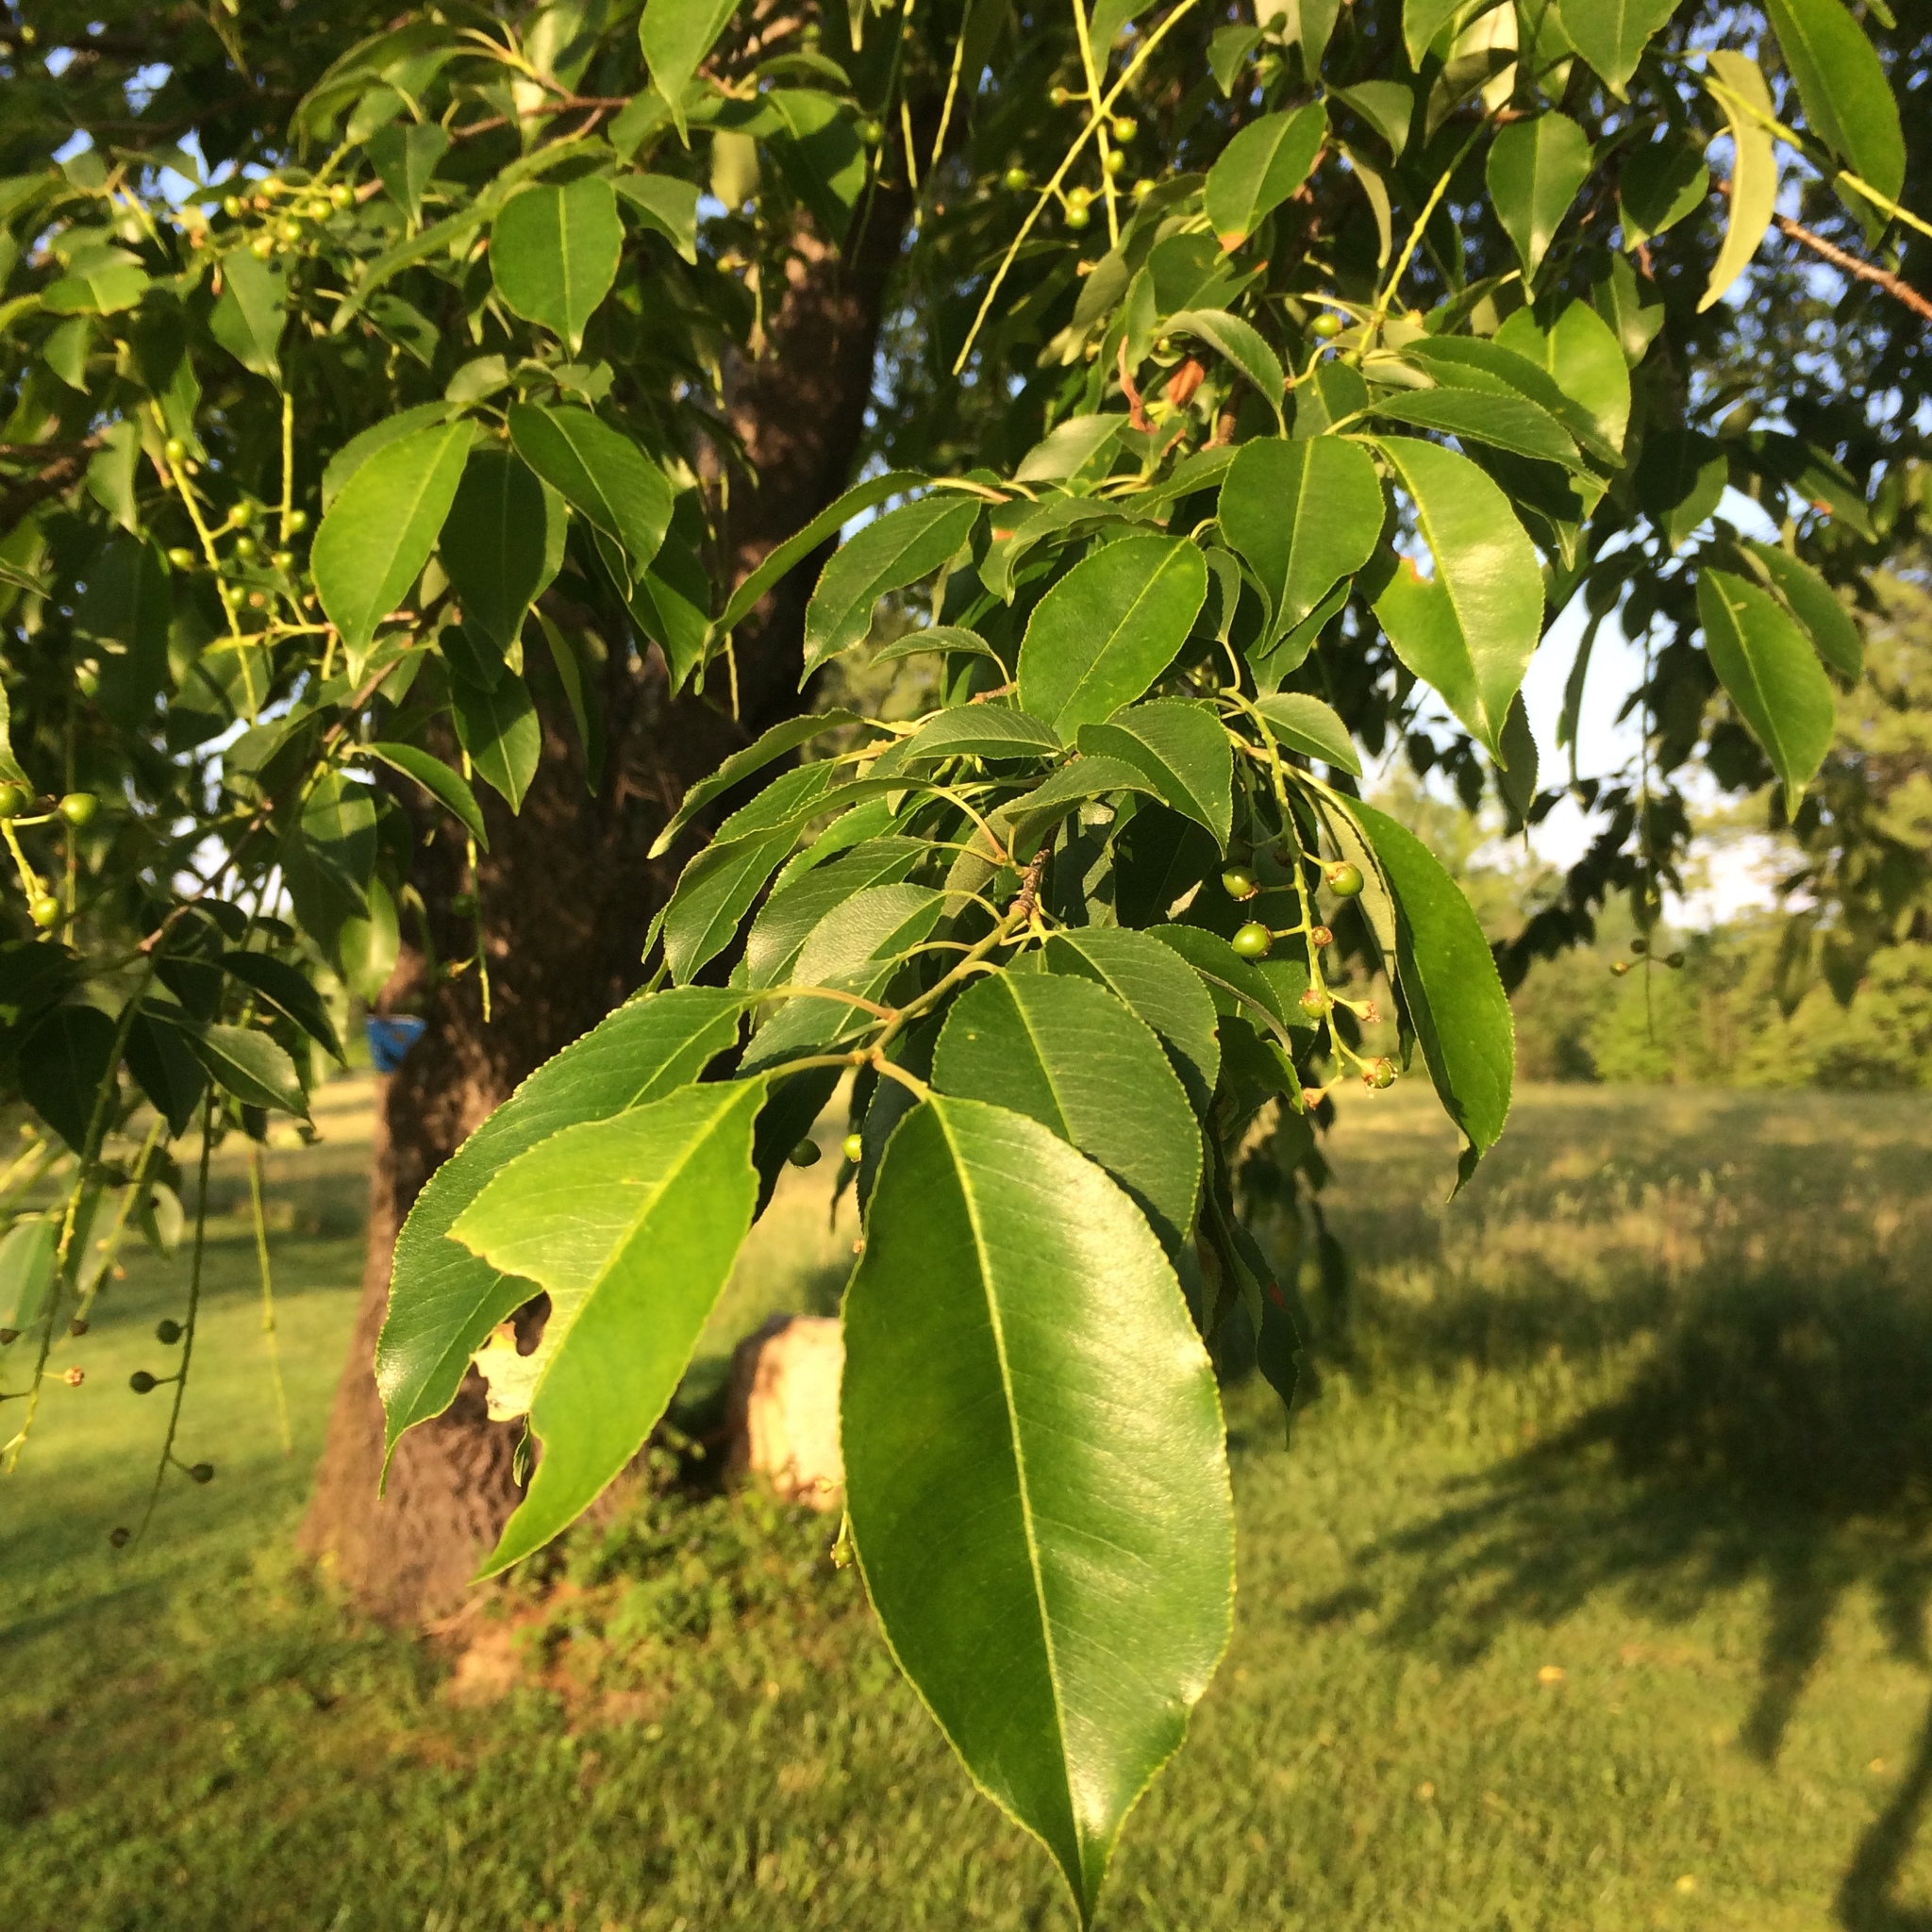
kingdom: Plantae
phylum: Tracheophyta
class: Magnoliopsida
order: Rosales
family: Rosaceae
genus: Prunus
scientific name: Prunus serotina
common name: Black cherry
